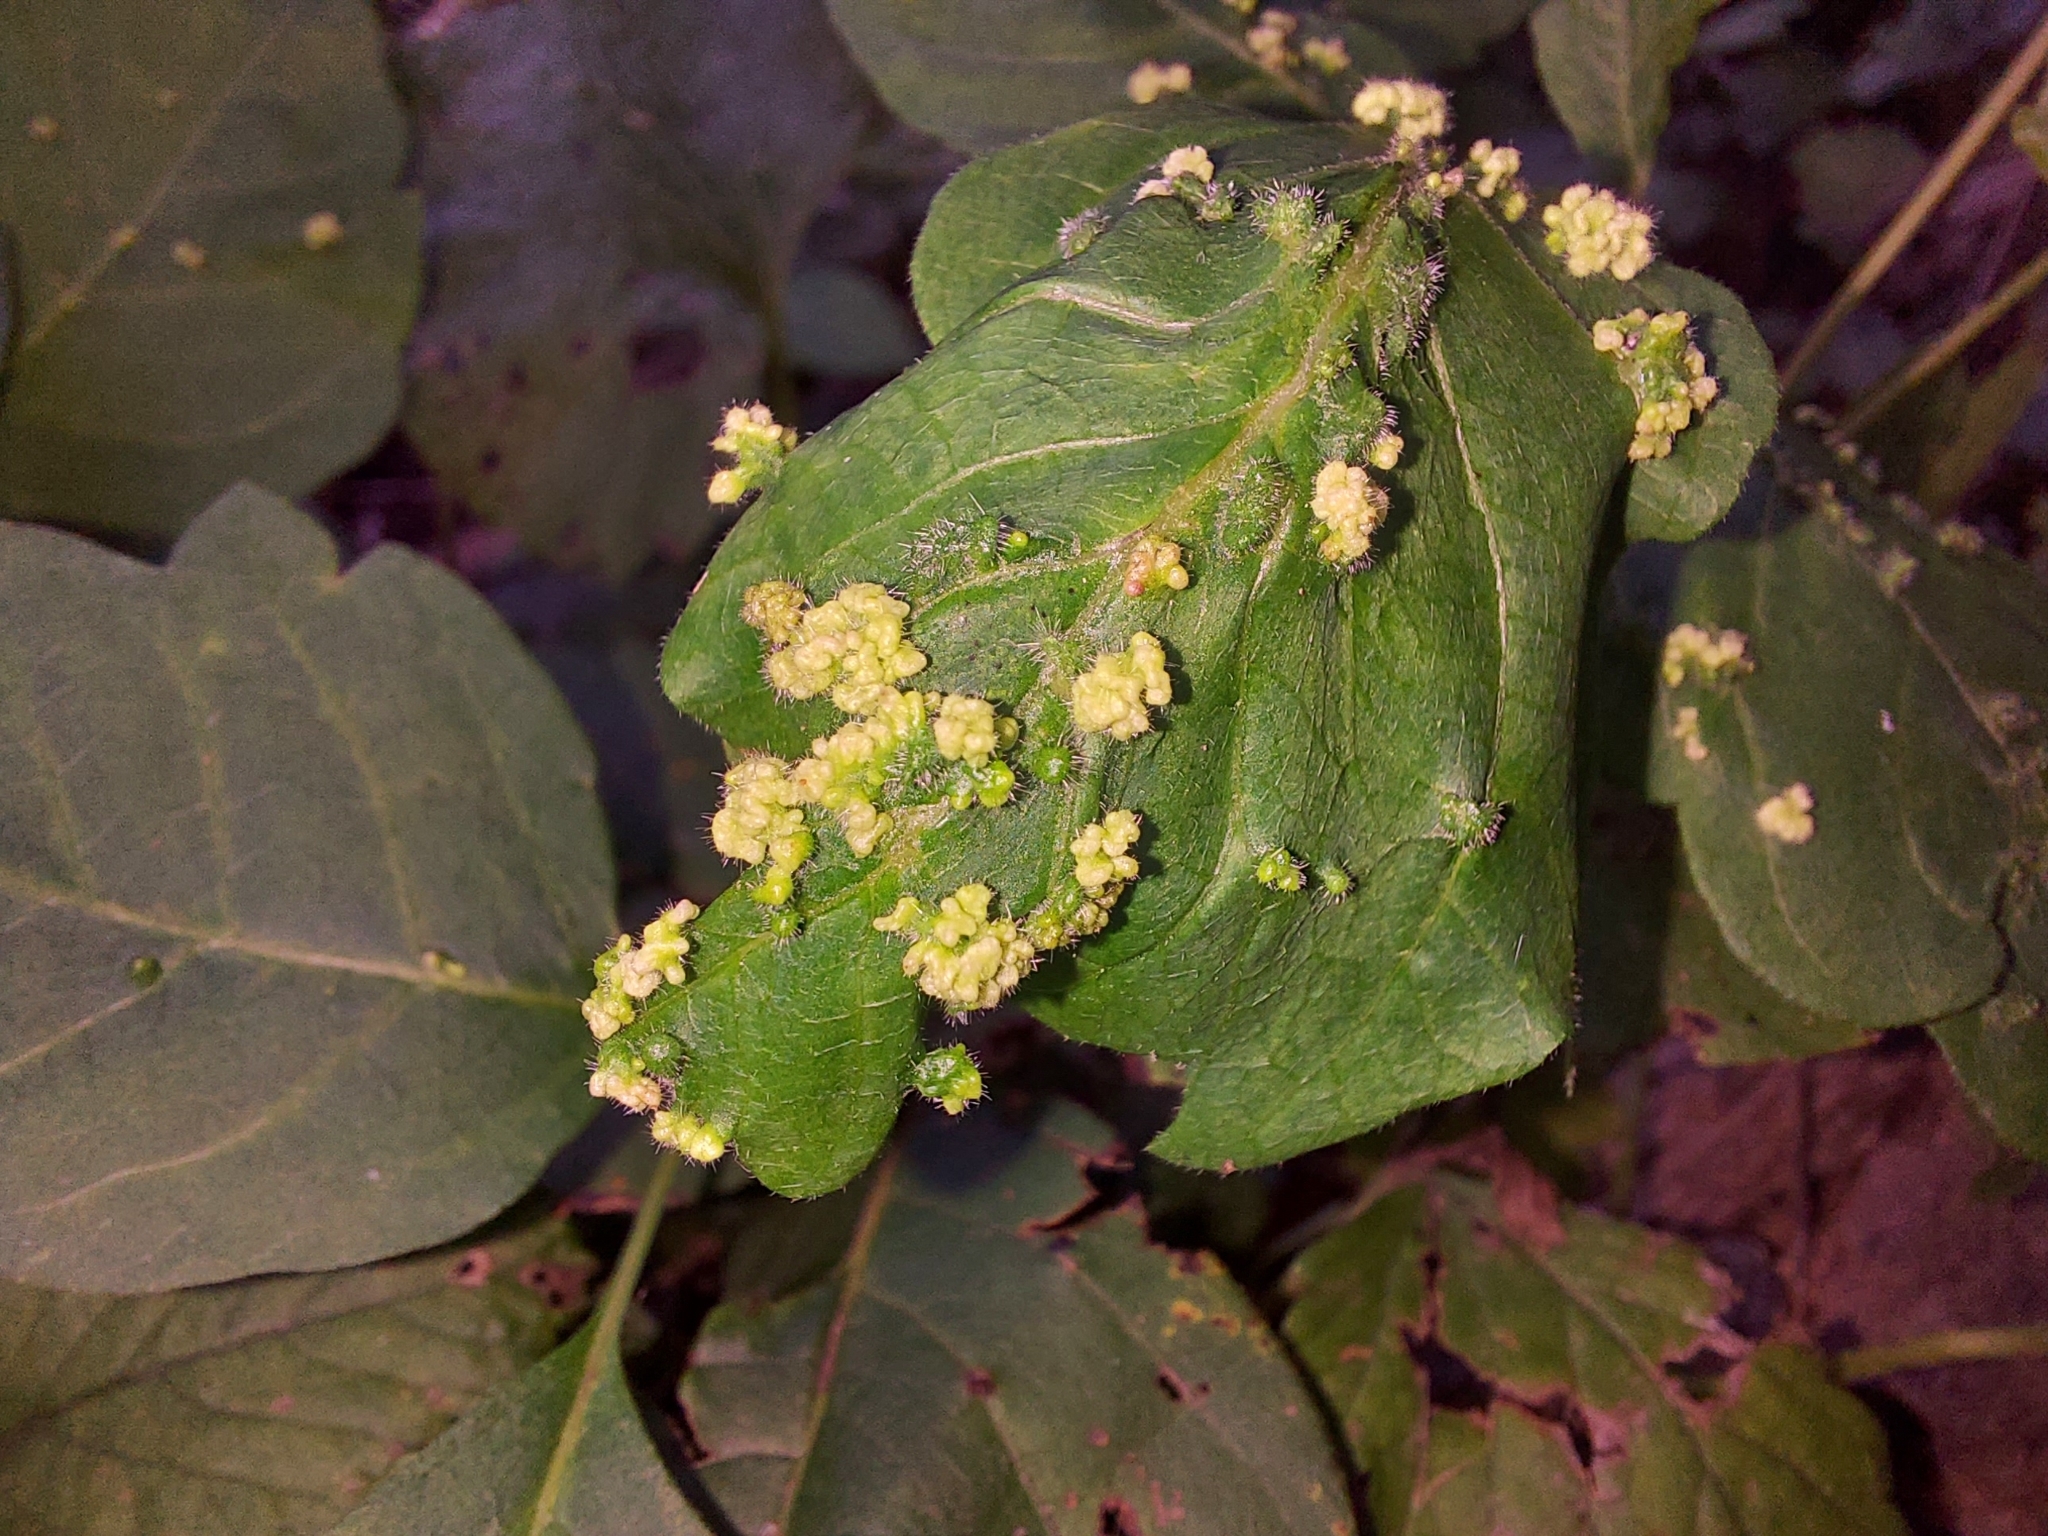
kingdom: Animalia
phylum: Arthropoda
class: Arachnida
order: Trombidiformes
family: Eriophyidae
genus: Aculops
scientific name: Aculops
